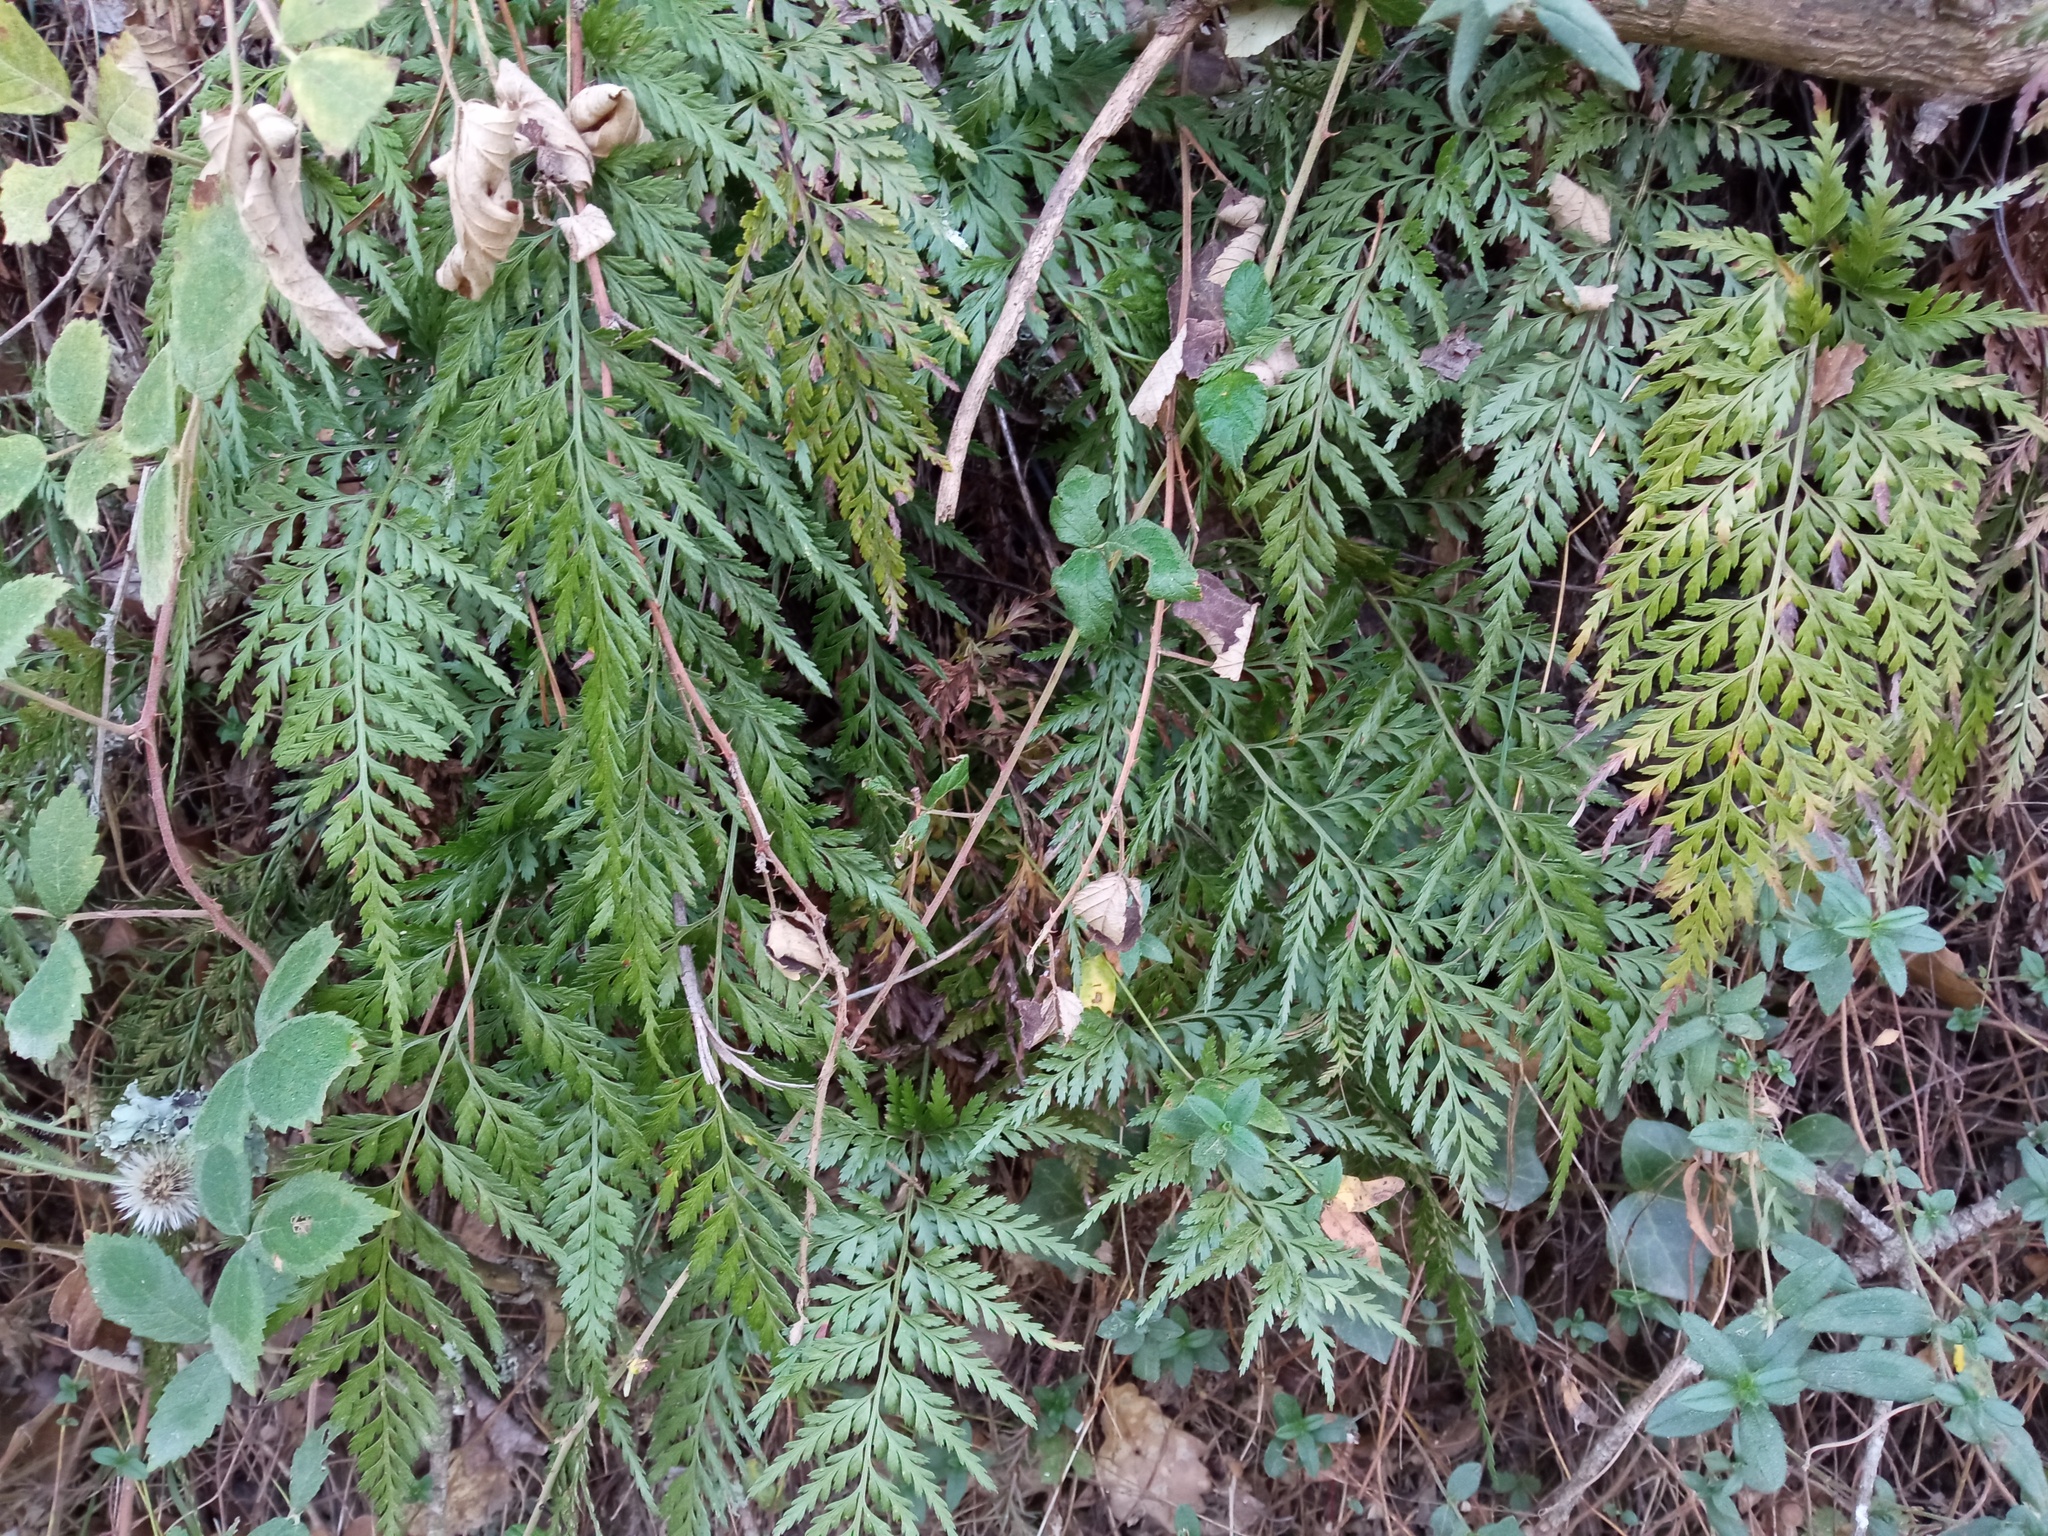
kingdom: Plantae
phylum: Tracheophyta
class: Polypodiopsida
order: Polypodiales
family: Aspleniaceae
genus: Asplenium
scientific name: Asplenium onopteris
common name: Irish spleenwort
